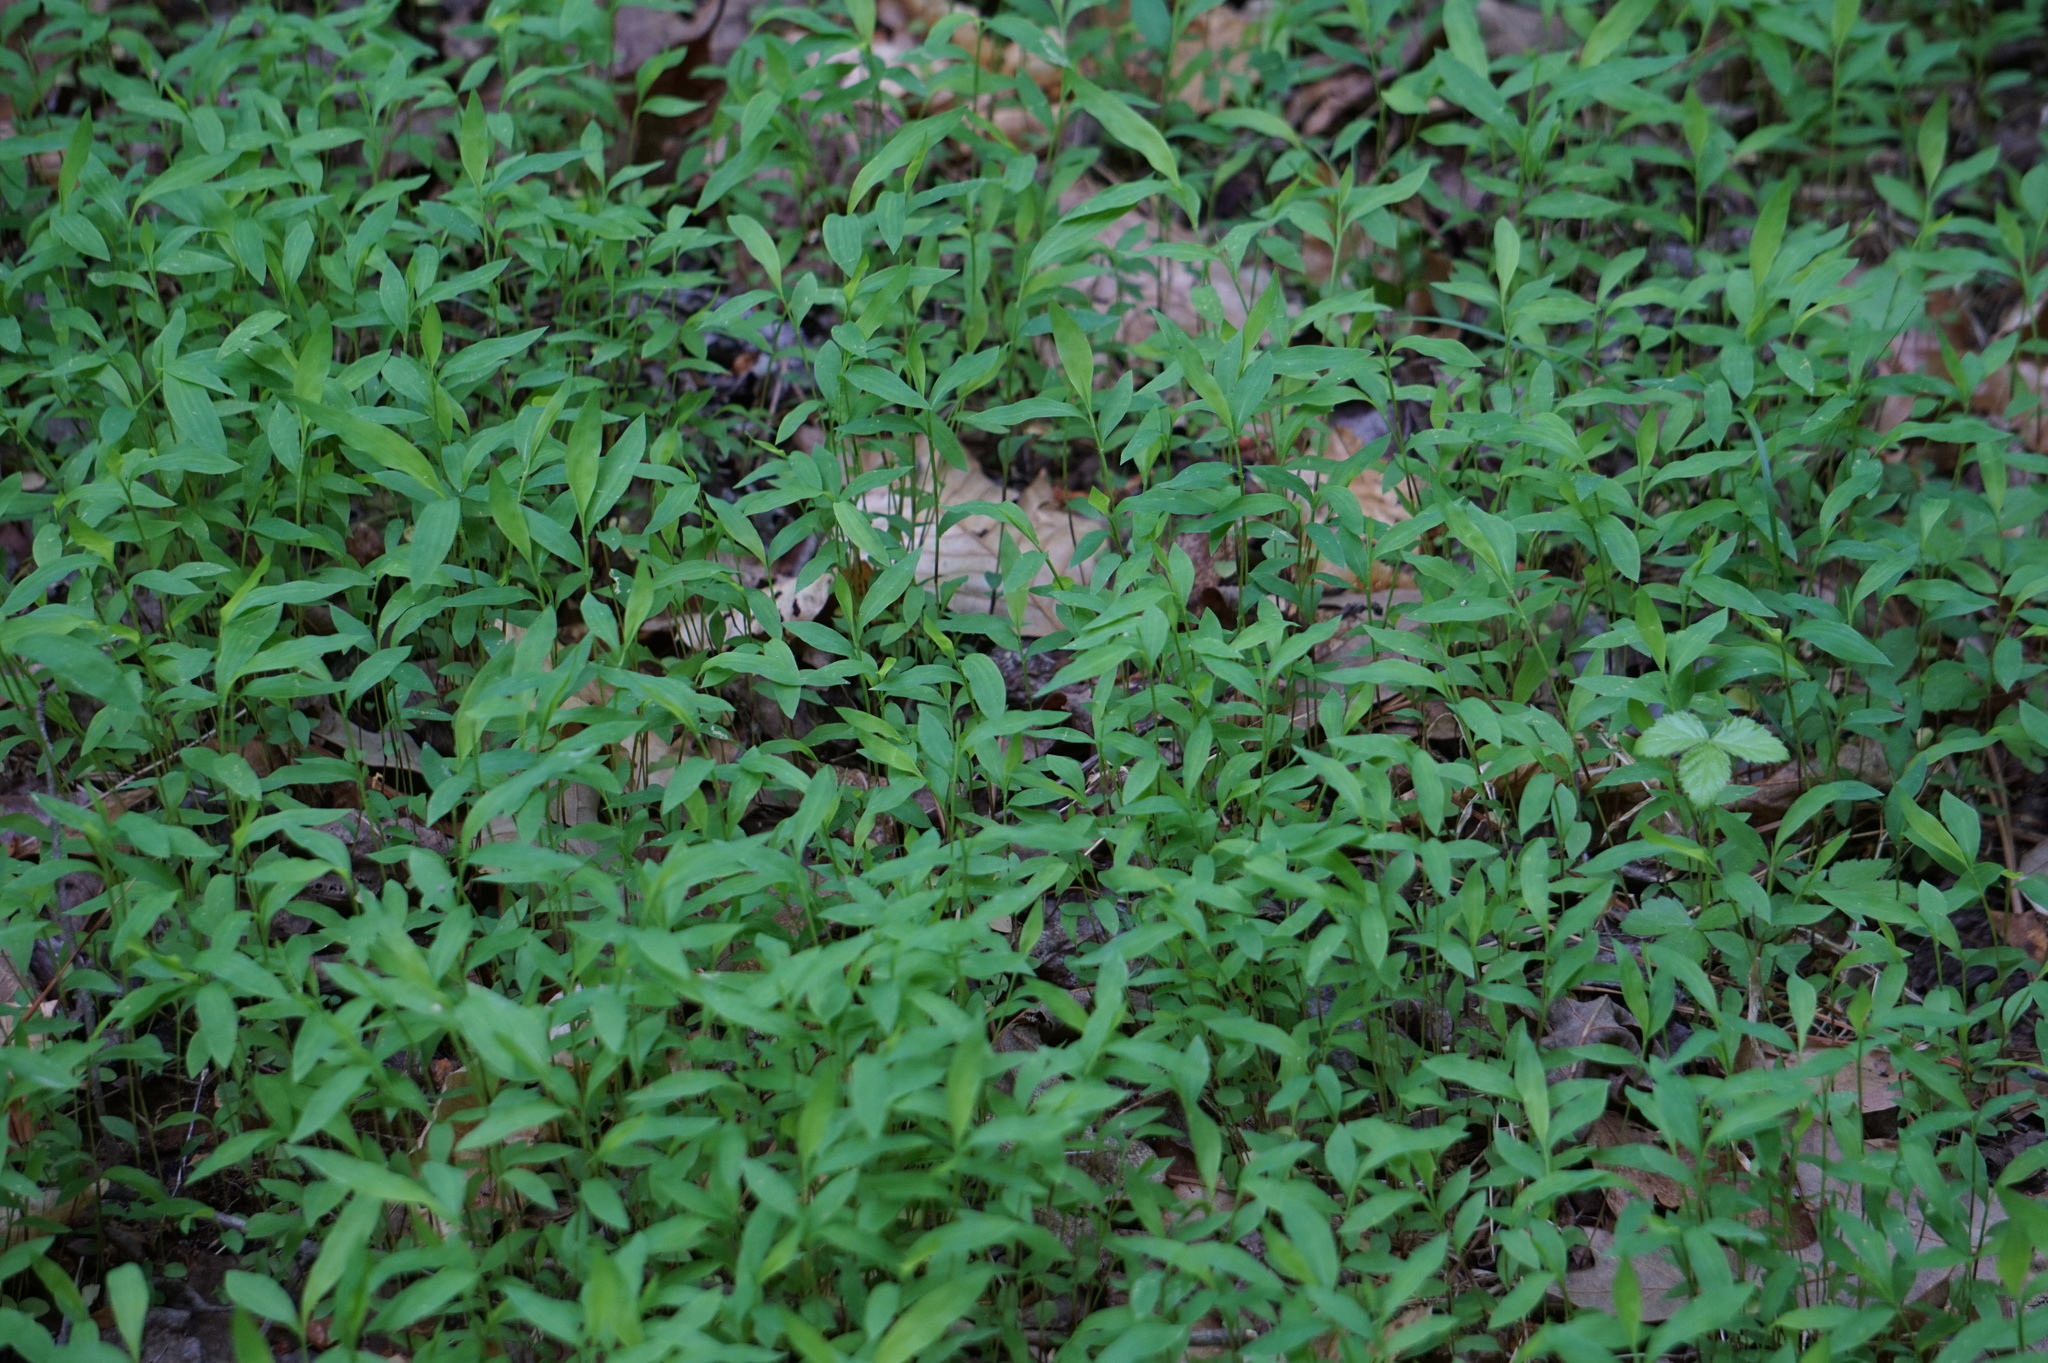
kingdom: Plantae
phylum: Tracheophyta
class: Liliopsida
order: Poales
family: Poaceae
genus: Microstegium
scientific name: Microstegium vimineum
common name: Japanese stiltgrass
